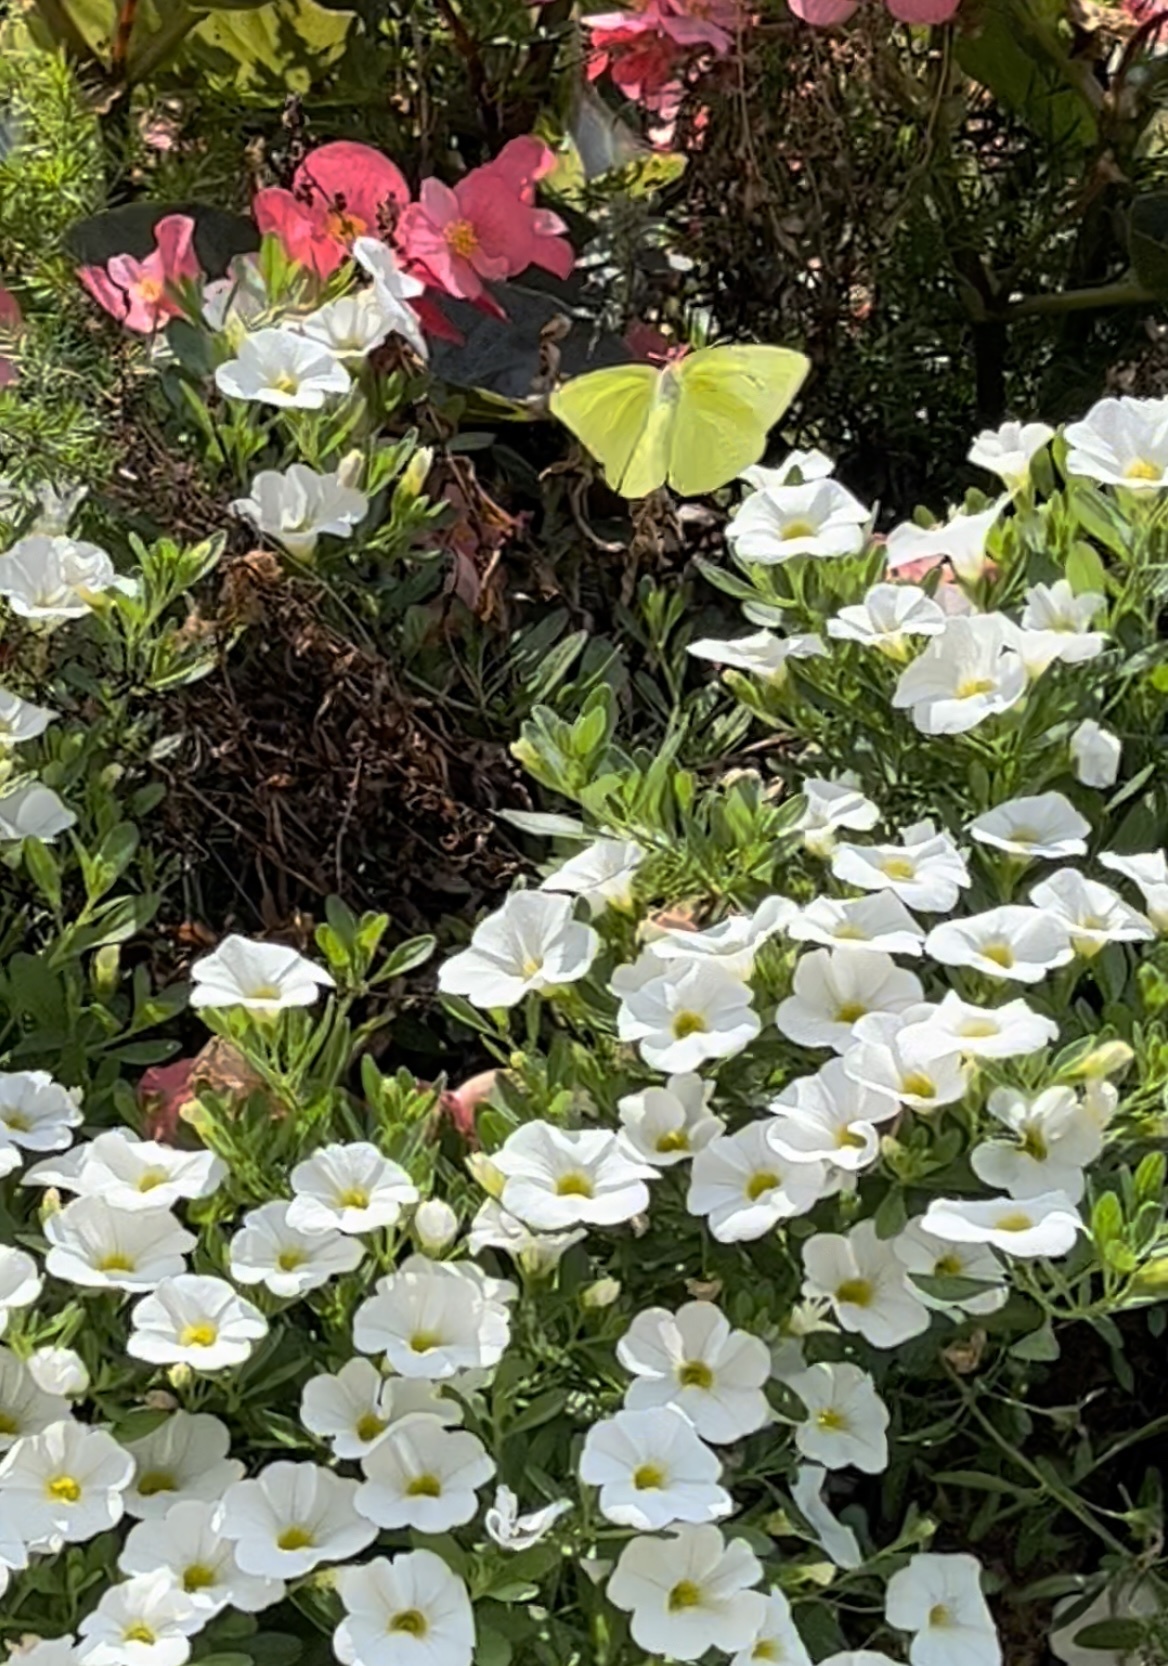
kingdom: Animalia
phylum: Arthropoda
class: Insecta
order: Lepidoptera
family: Pieridae
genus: Phoebis
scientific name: Phoebis sennae
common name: Cloudless sulphur
